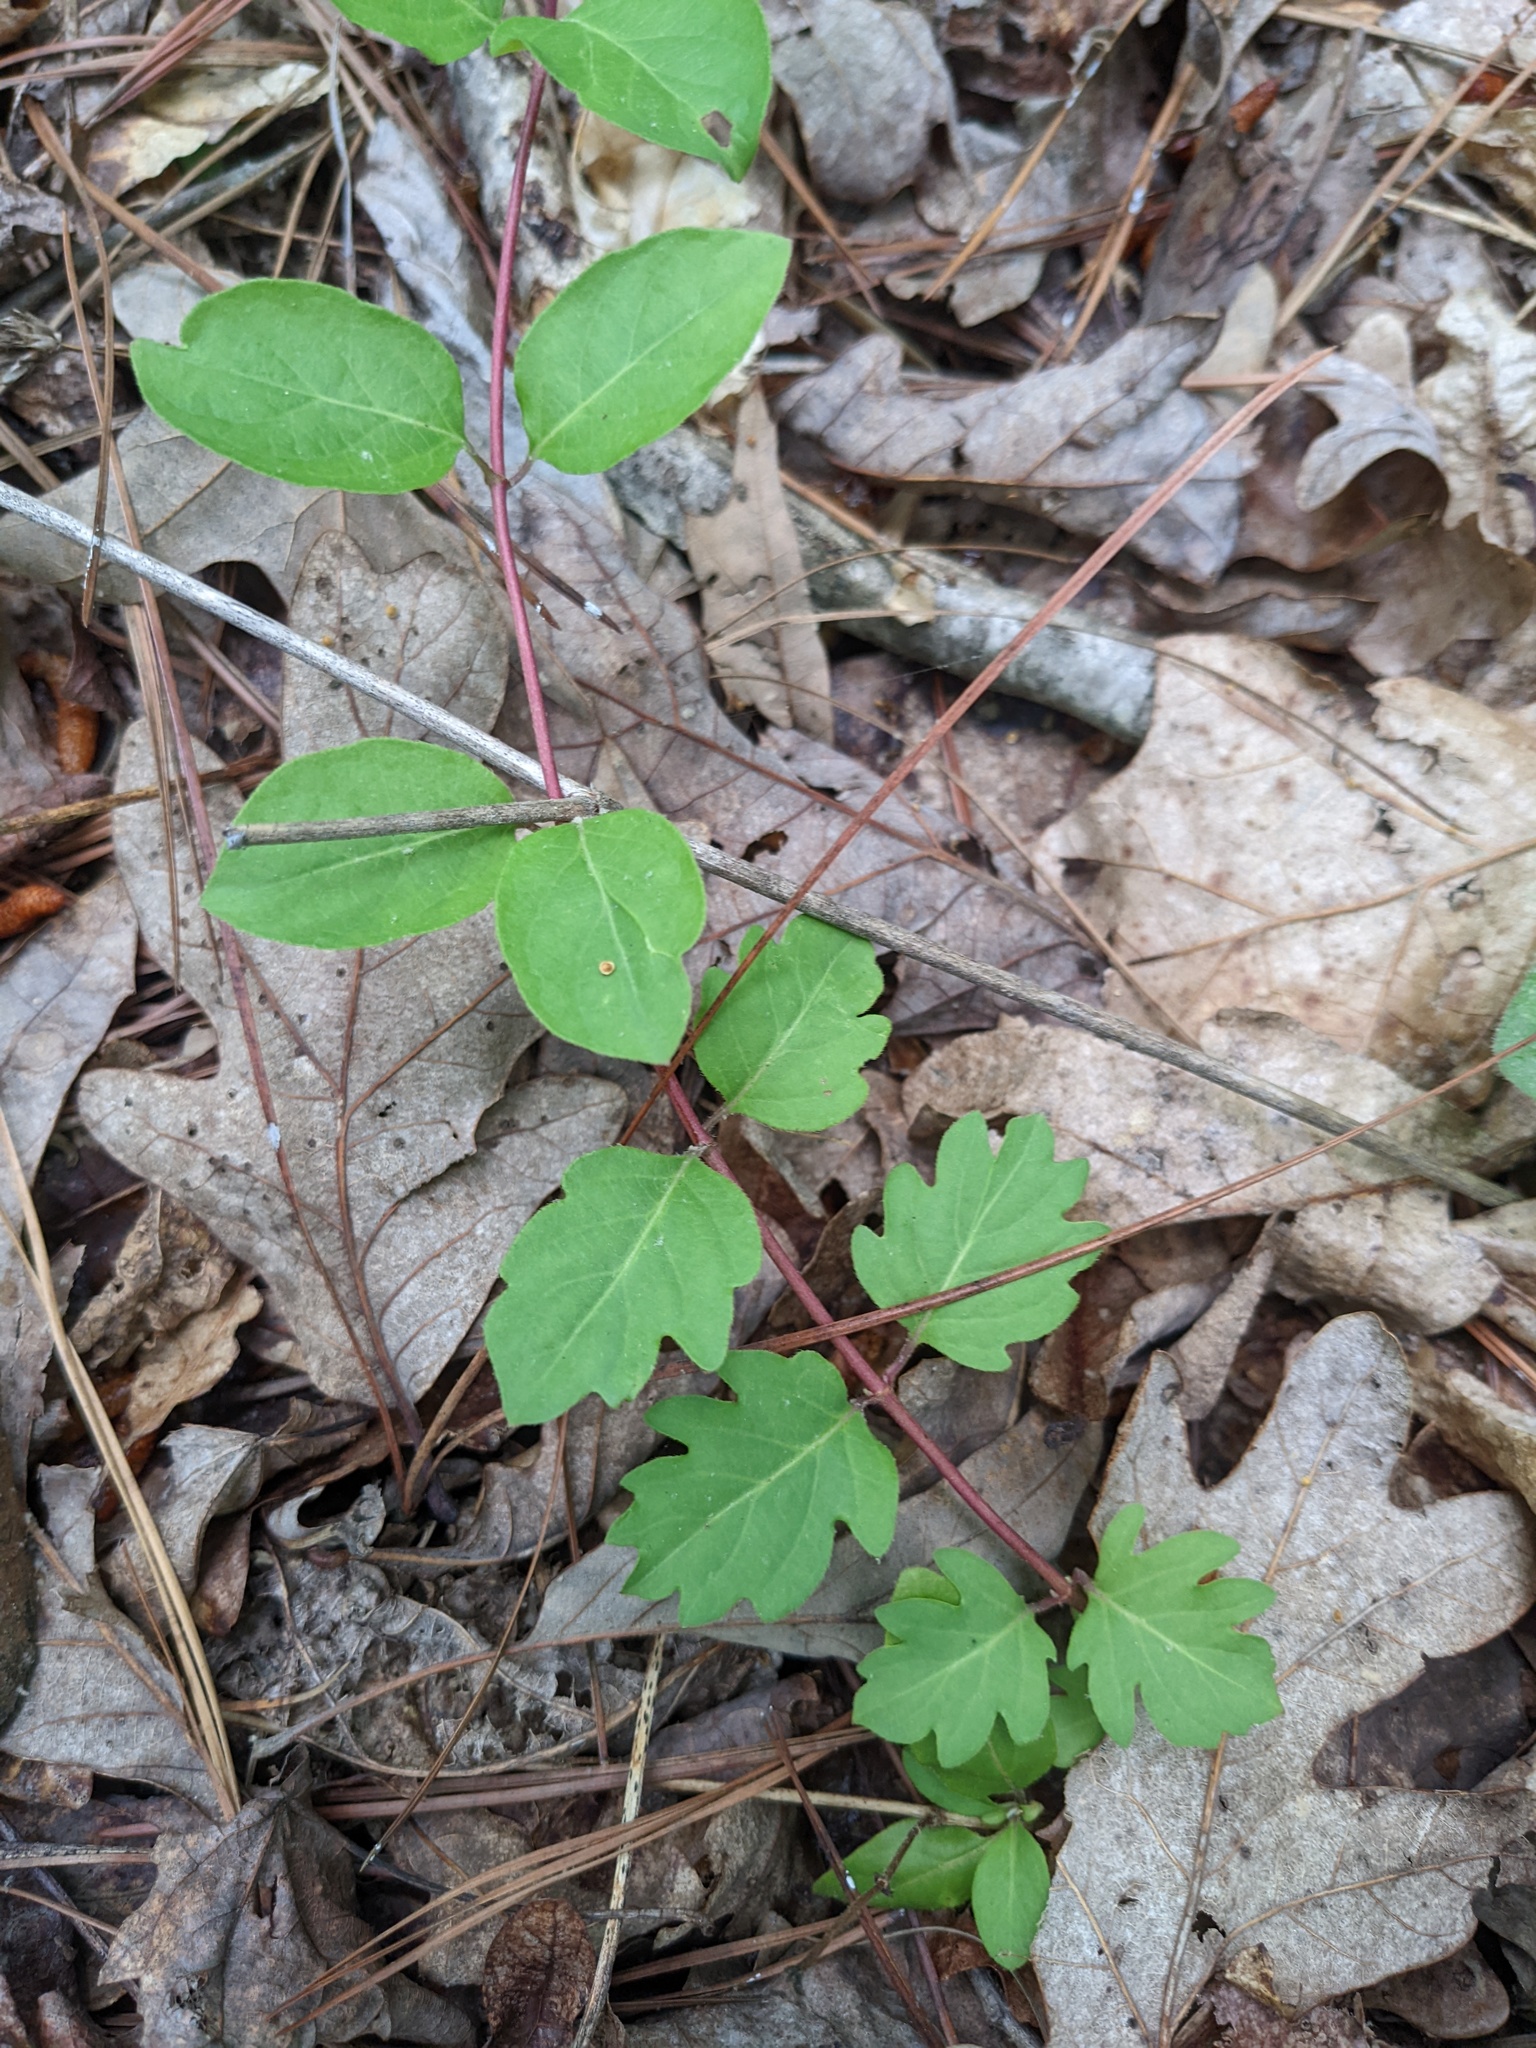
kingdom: Plantae
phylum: Tracheophyta
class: Magnoliopsida
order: Dipsacales
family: Caprifoliaceae
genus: Lonicera
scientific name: Lonicera japonica
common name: Japanese honeysuckle
